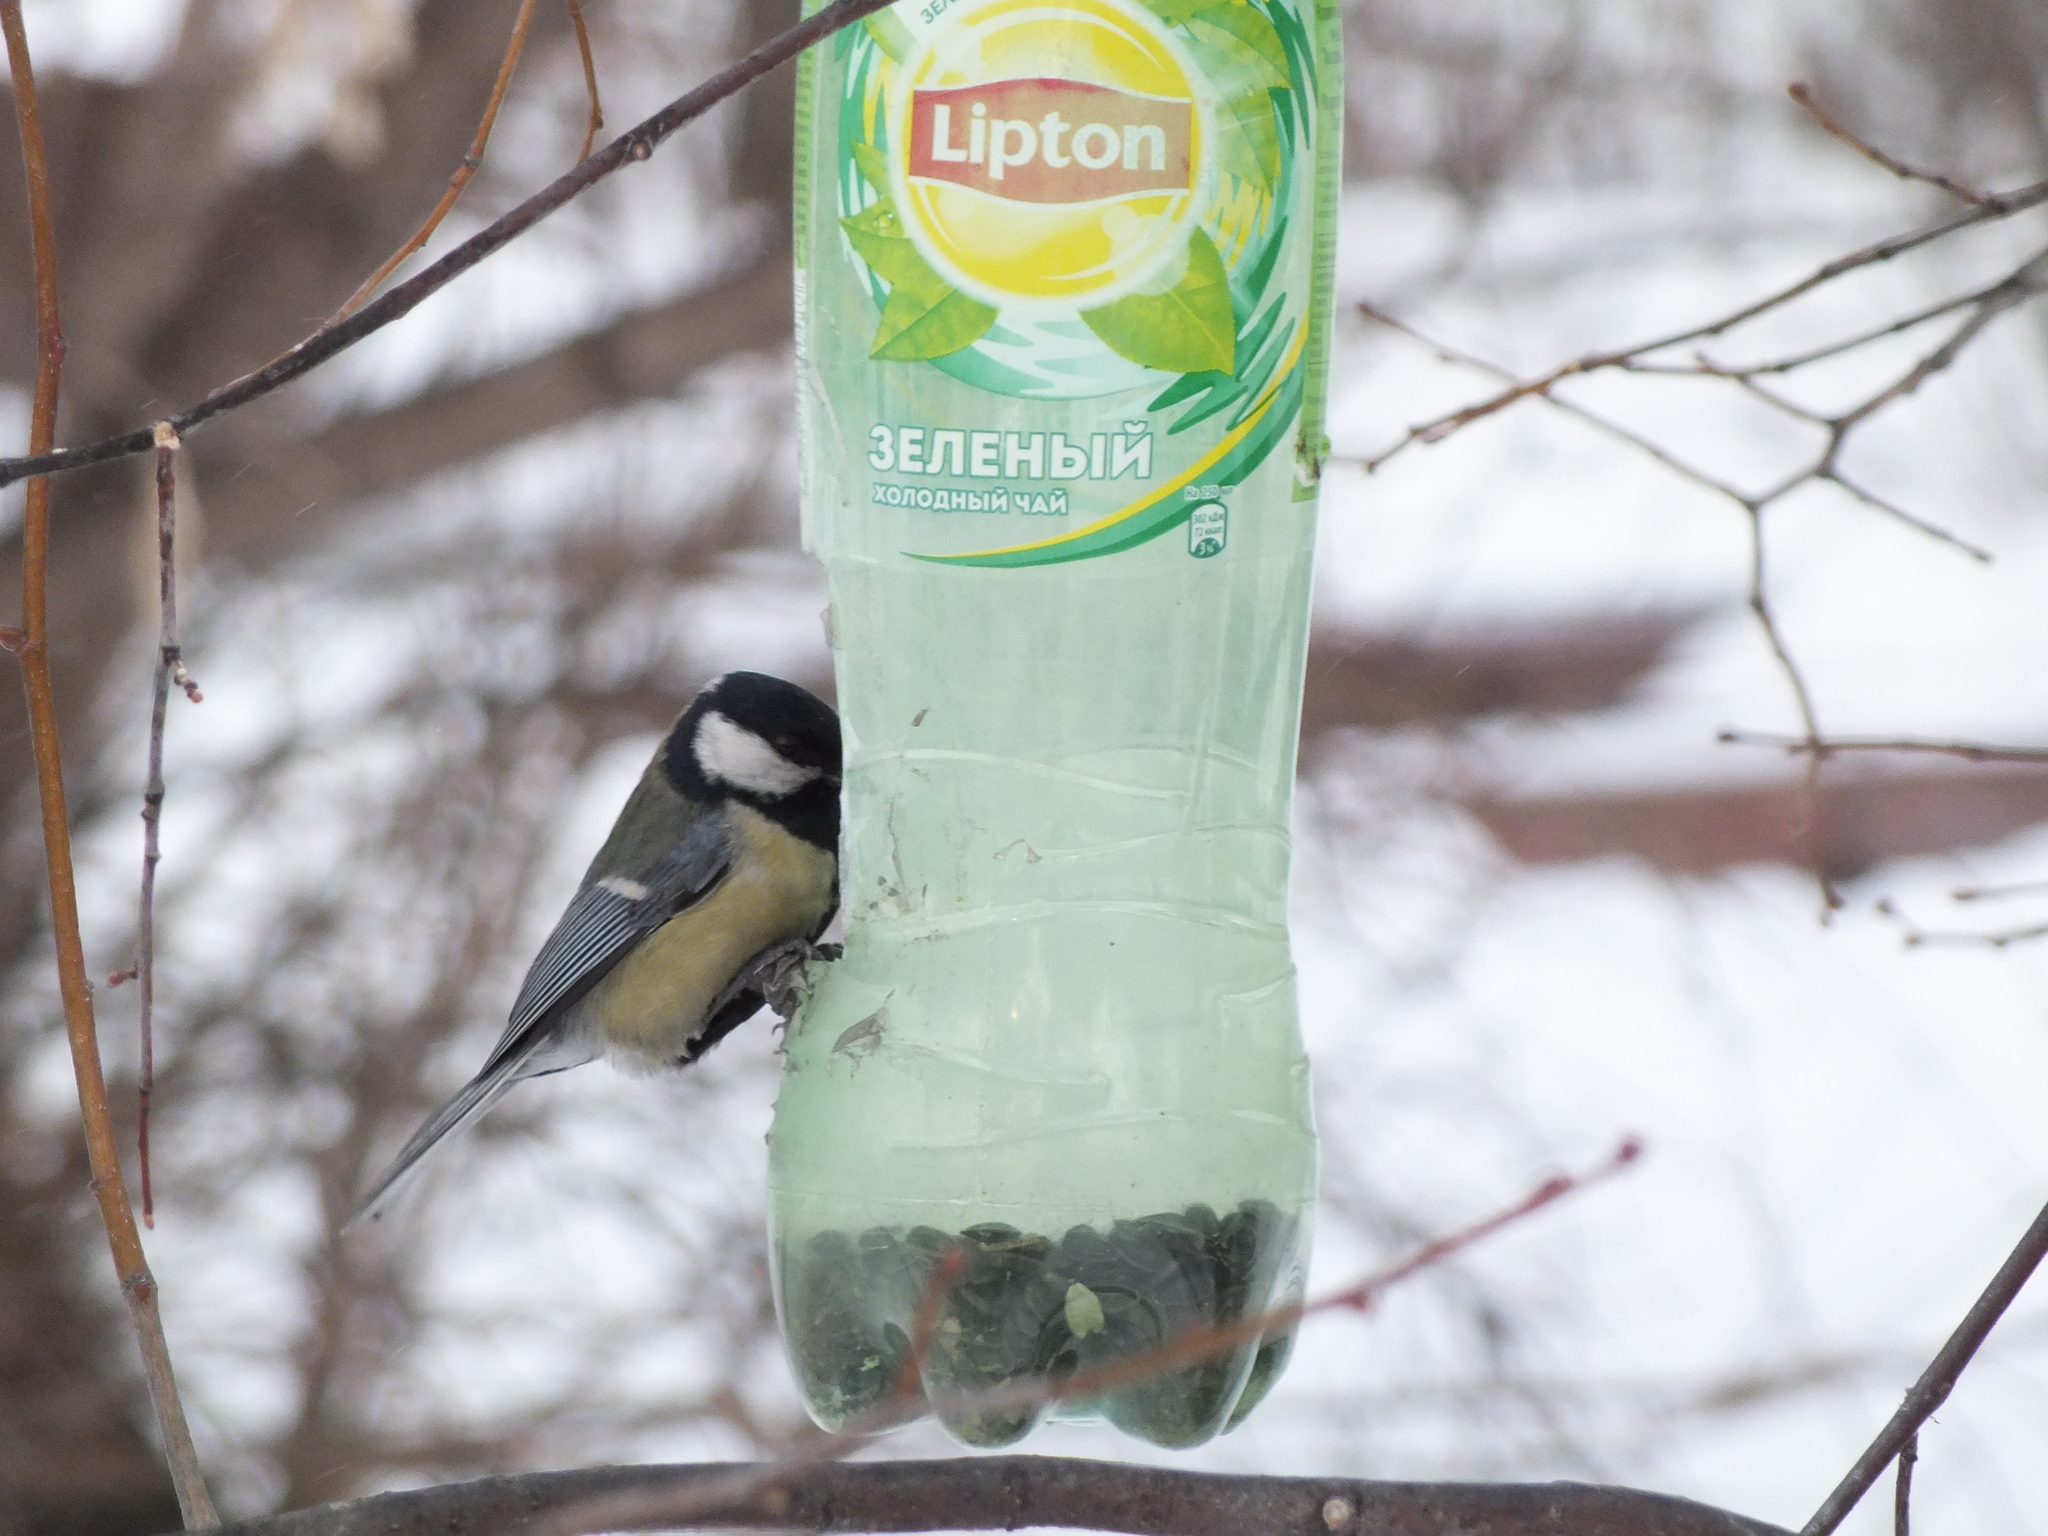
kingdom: Animalia
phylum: Chordata
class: Aves
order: Passeriformes
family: Paridae
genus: Parus
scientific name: Parus major
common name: Great tit
